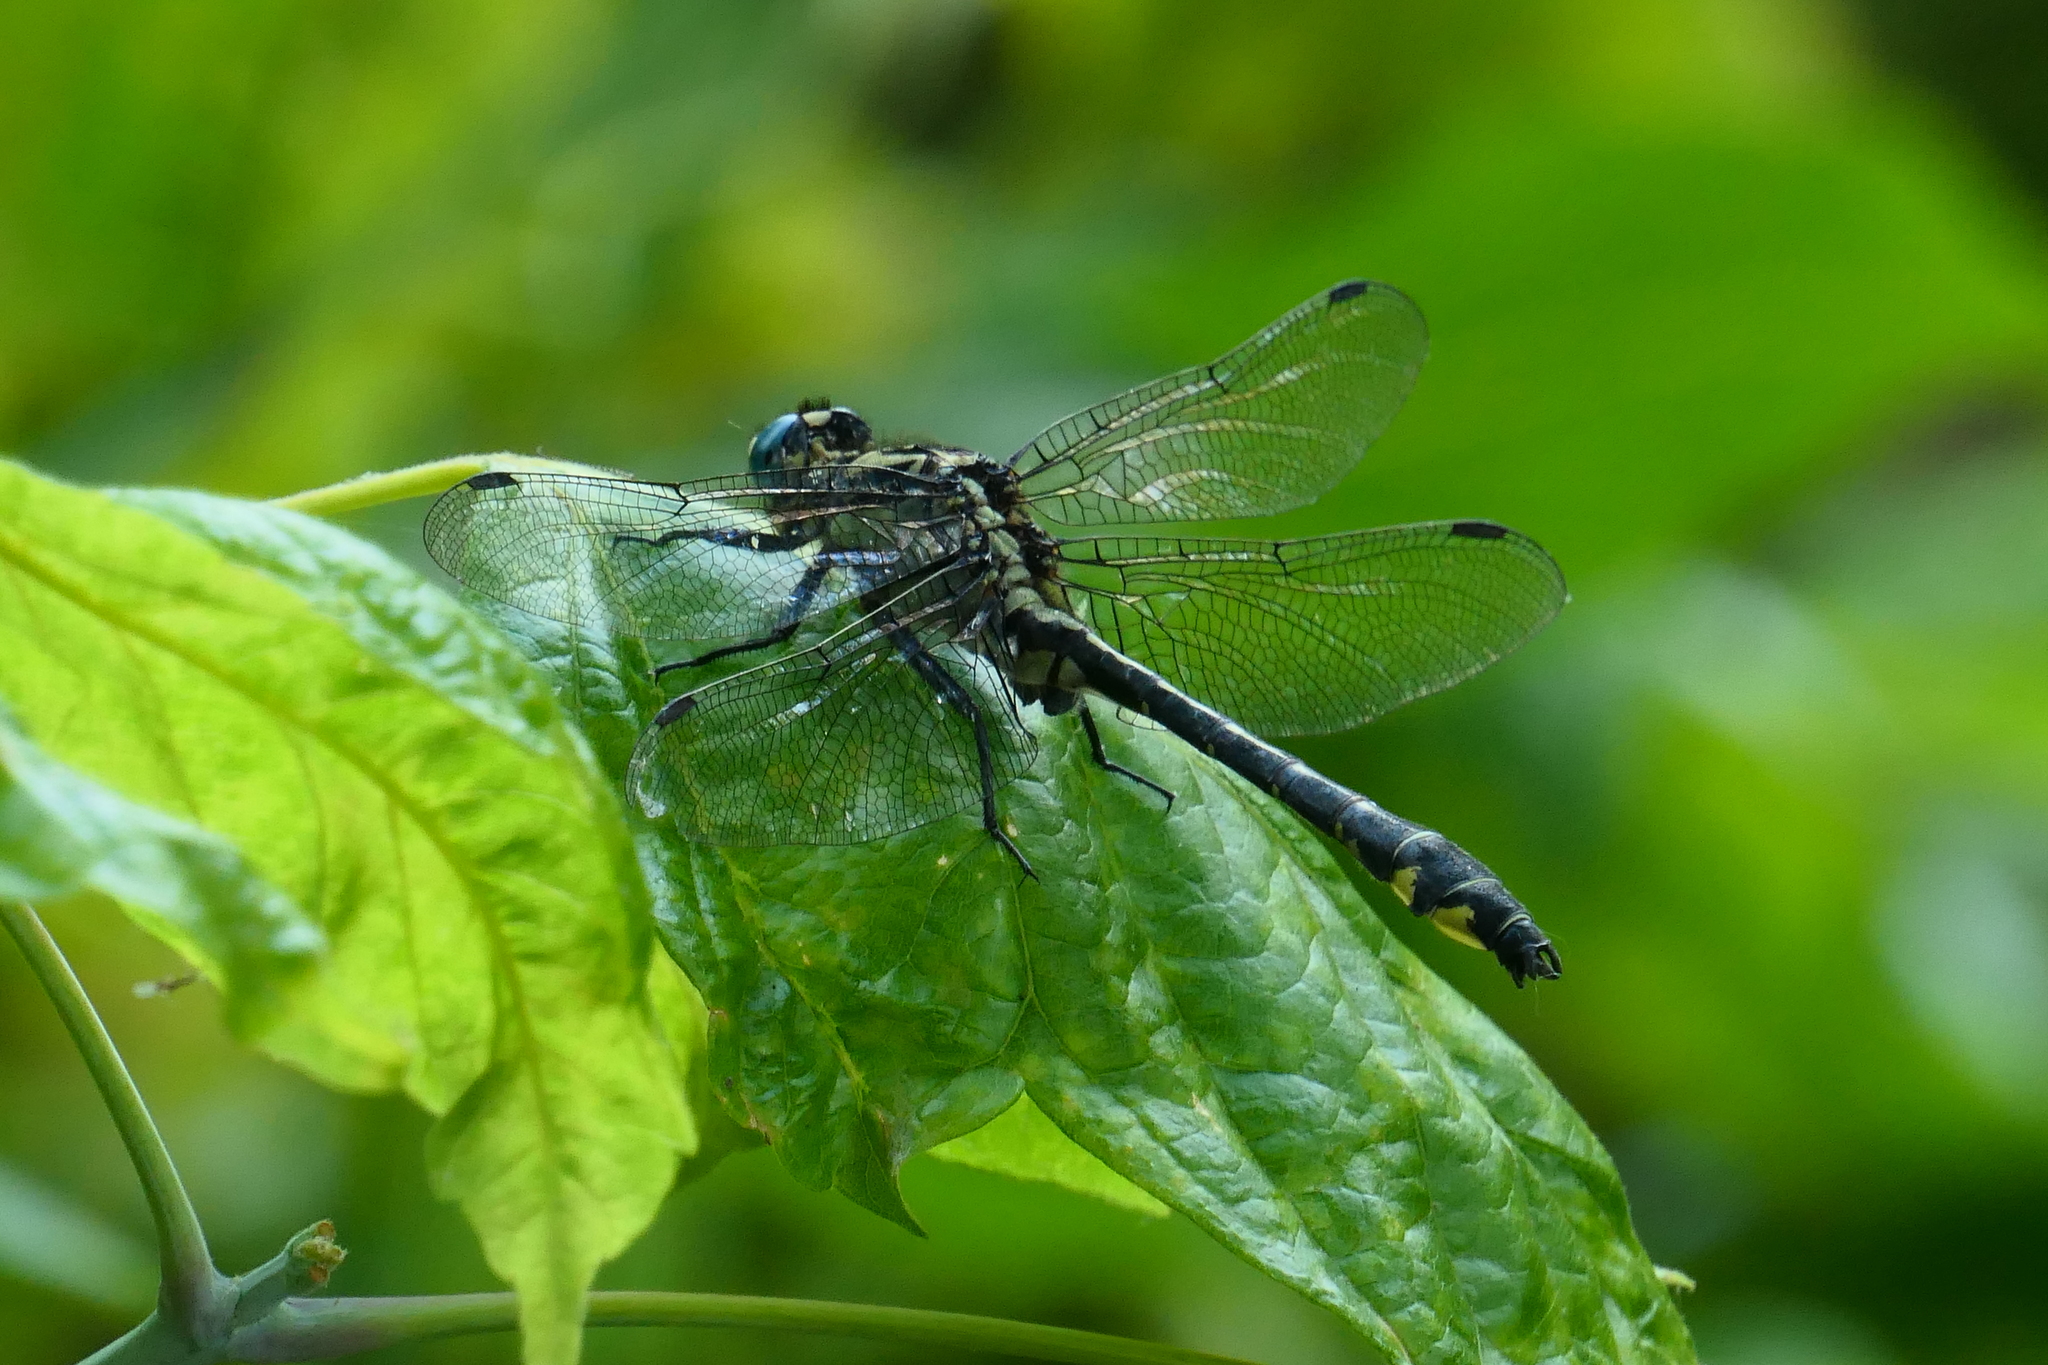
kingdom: Animalia
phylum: Arthropoda
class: Insecta
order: Odonata
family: Gomphidae
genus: Gomphus
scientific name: Gomphus vulgatissimus
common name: Club-tailed dragonfly
